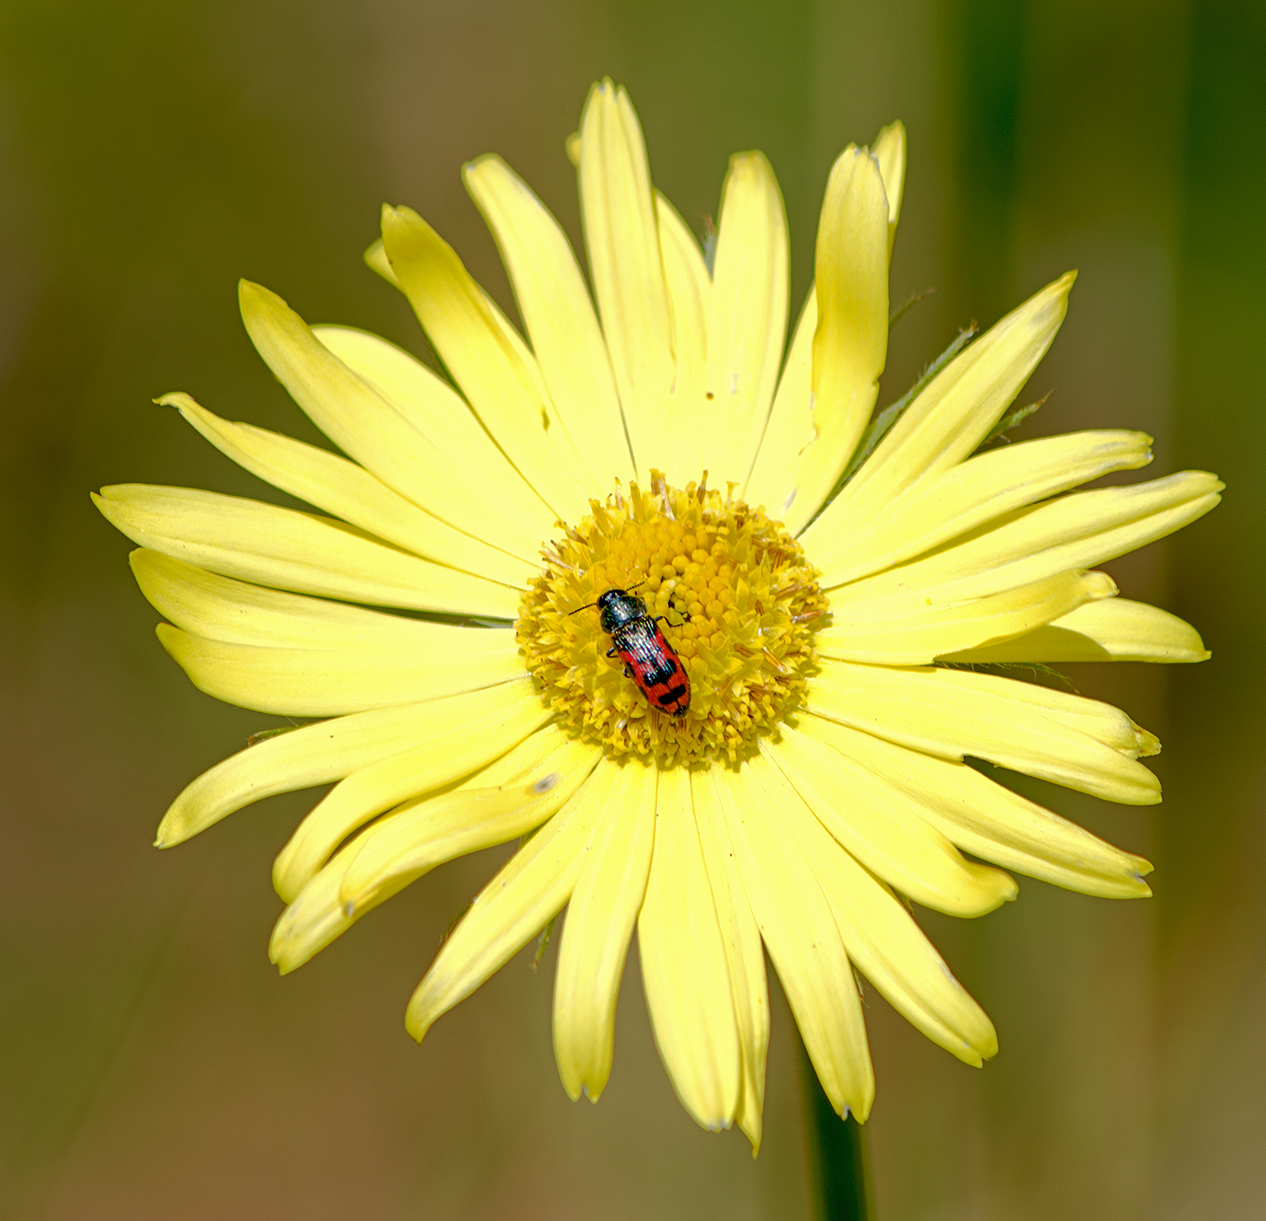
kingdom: Animalia
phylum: Arthropoda
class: Insecta
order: Coleoptera
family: Buprestidae
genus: Acmaeodera
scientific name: Acmaeodera ottomana
